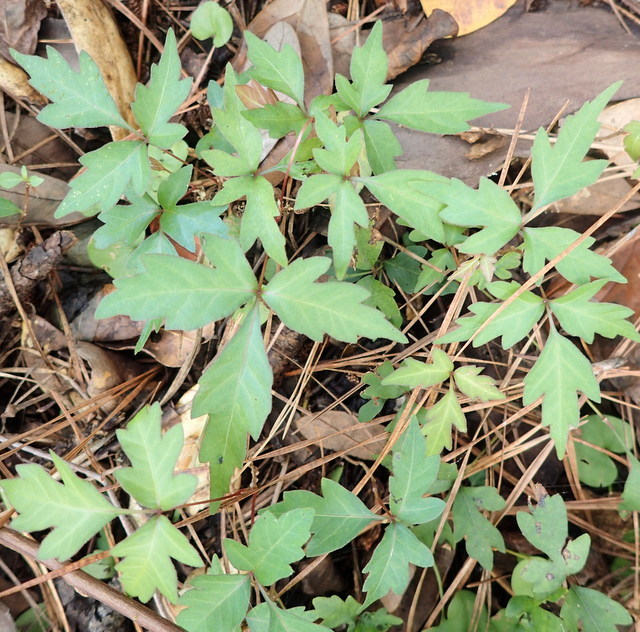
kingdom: Plantae
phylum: Tracheophyta
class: Magnoliopsida
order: Sapindales
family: Anacardiaceae
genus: Toxicodendron
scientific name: Toxicodendron radicans
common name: Poison ivy
